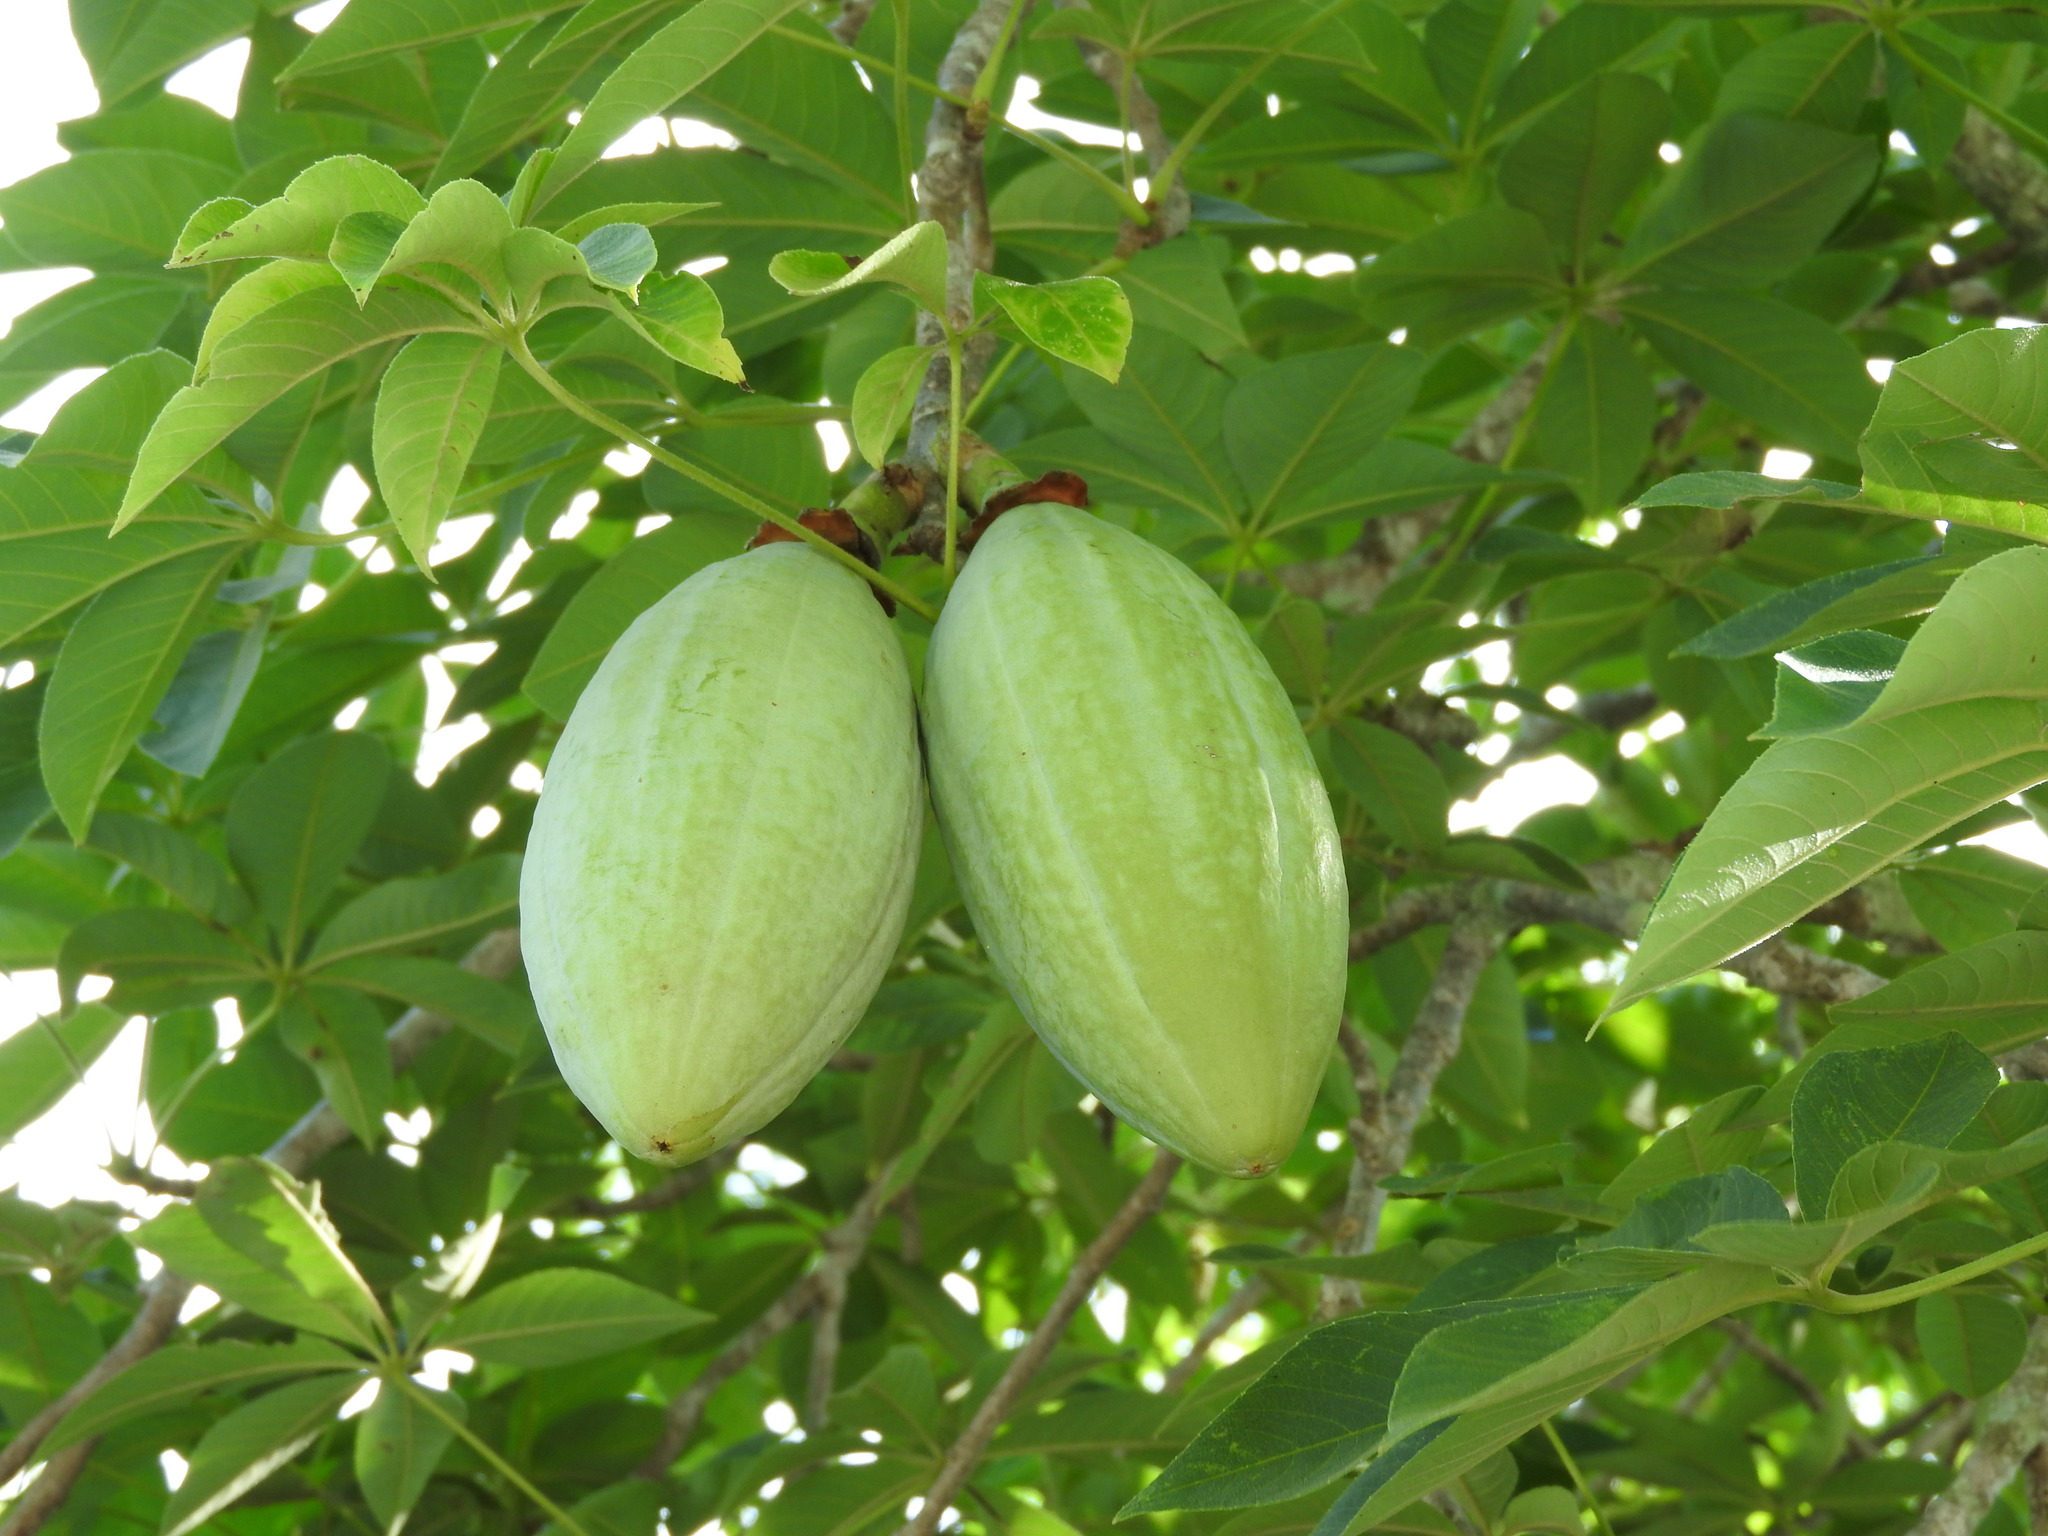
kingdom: Plantae
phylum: Tracheophyta
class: Magnoliopsida
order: Malvales
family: Malvaceae
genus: Ceiba
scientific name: Ceiba aesculifolia
